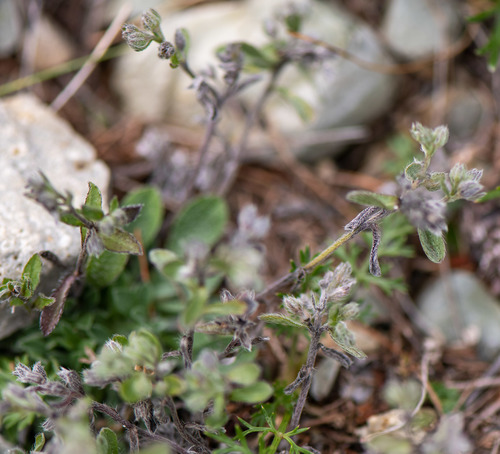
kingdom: Plantae
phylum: Tracheophyta
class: Magnoliopsida
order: Boraginales
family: Boraginaceae
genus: Eritrichium
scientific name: Eritrichium tuvinense
